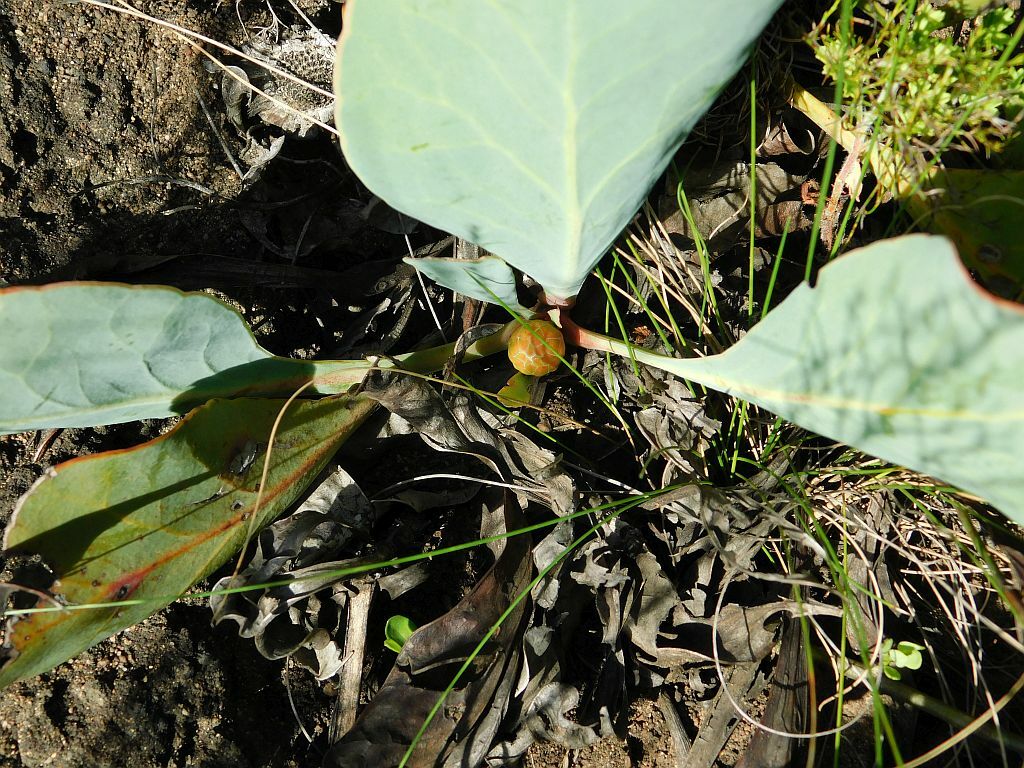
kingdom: Plantae
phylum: Tracheophyta
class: Magnoliopsida
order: Proteales
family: Proteaceae
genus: Protea
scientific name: Protea acaulos
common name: Common ground sugarbush
